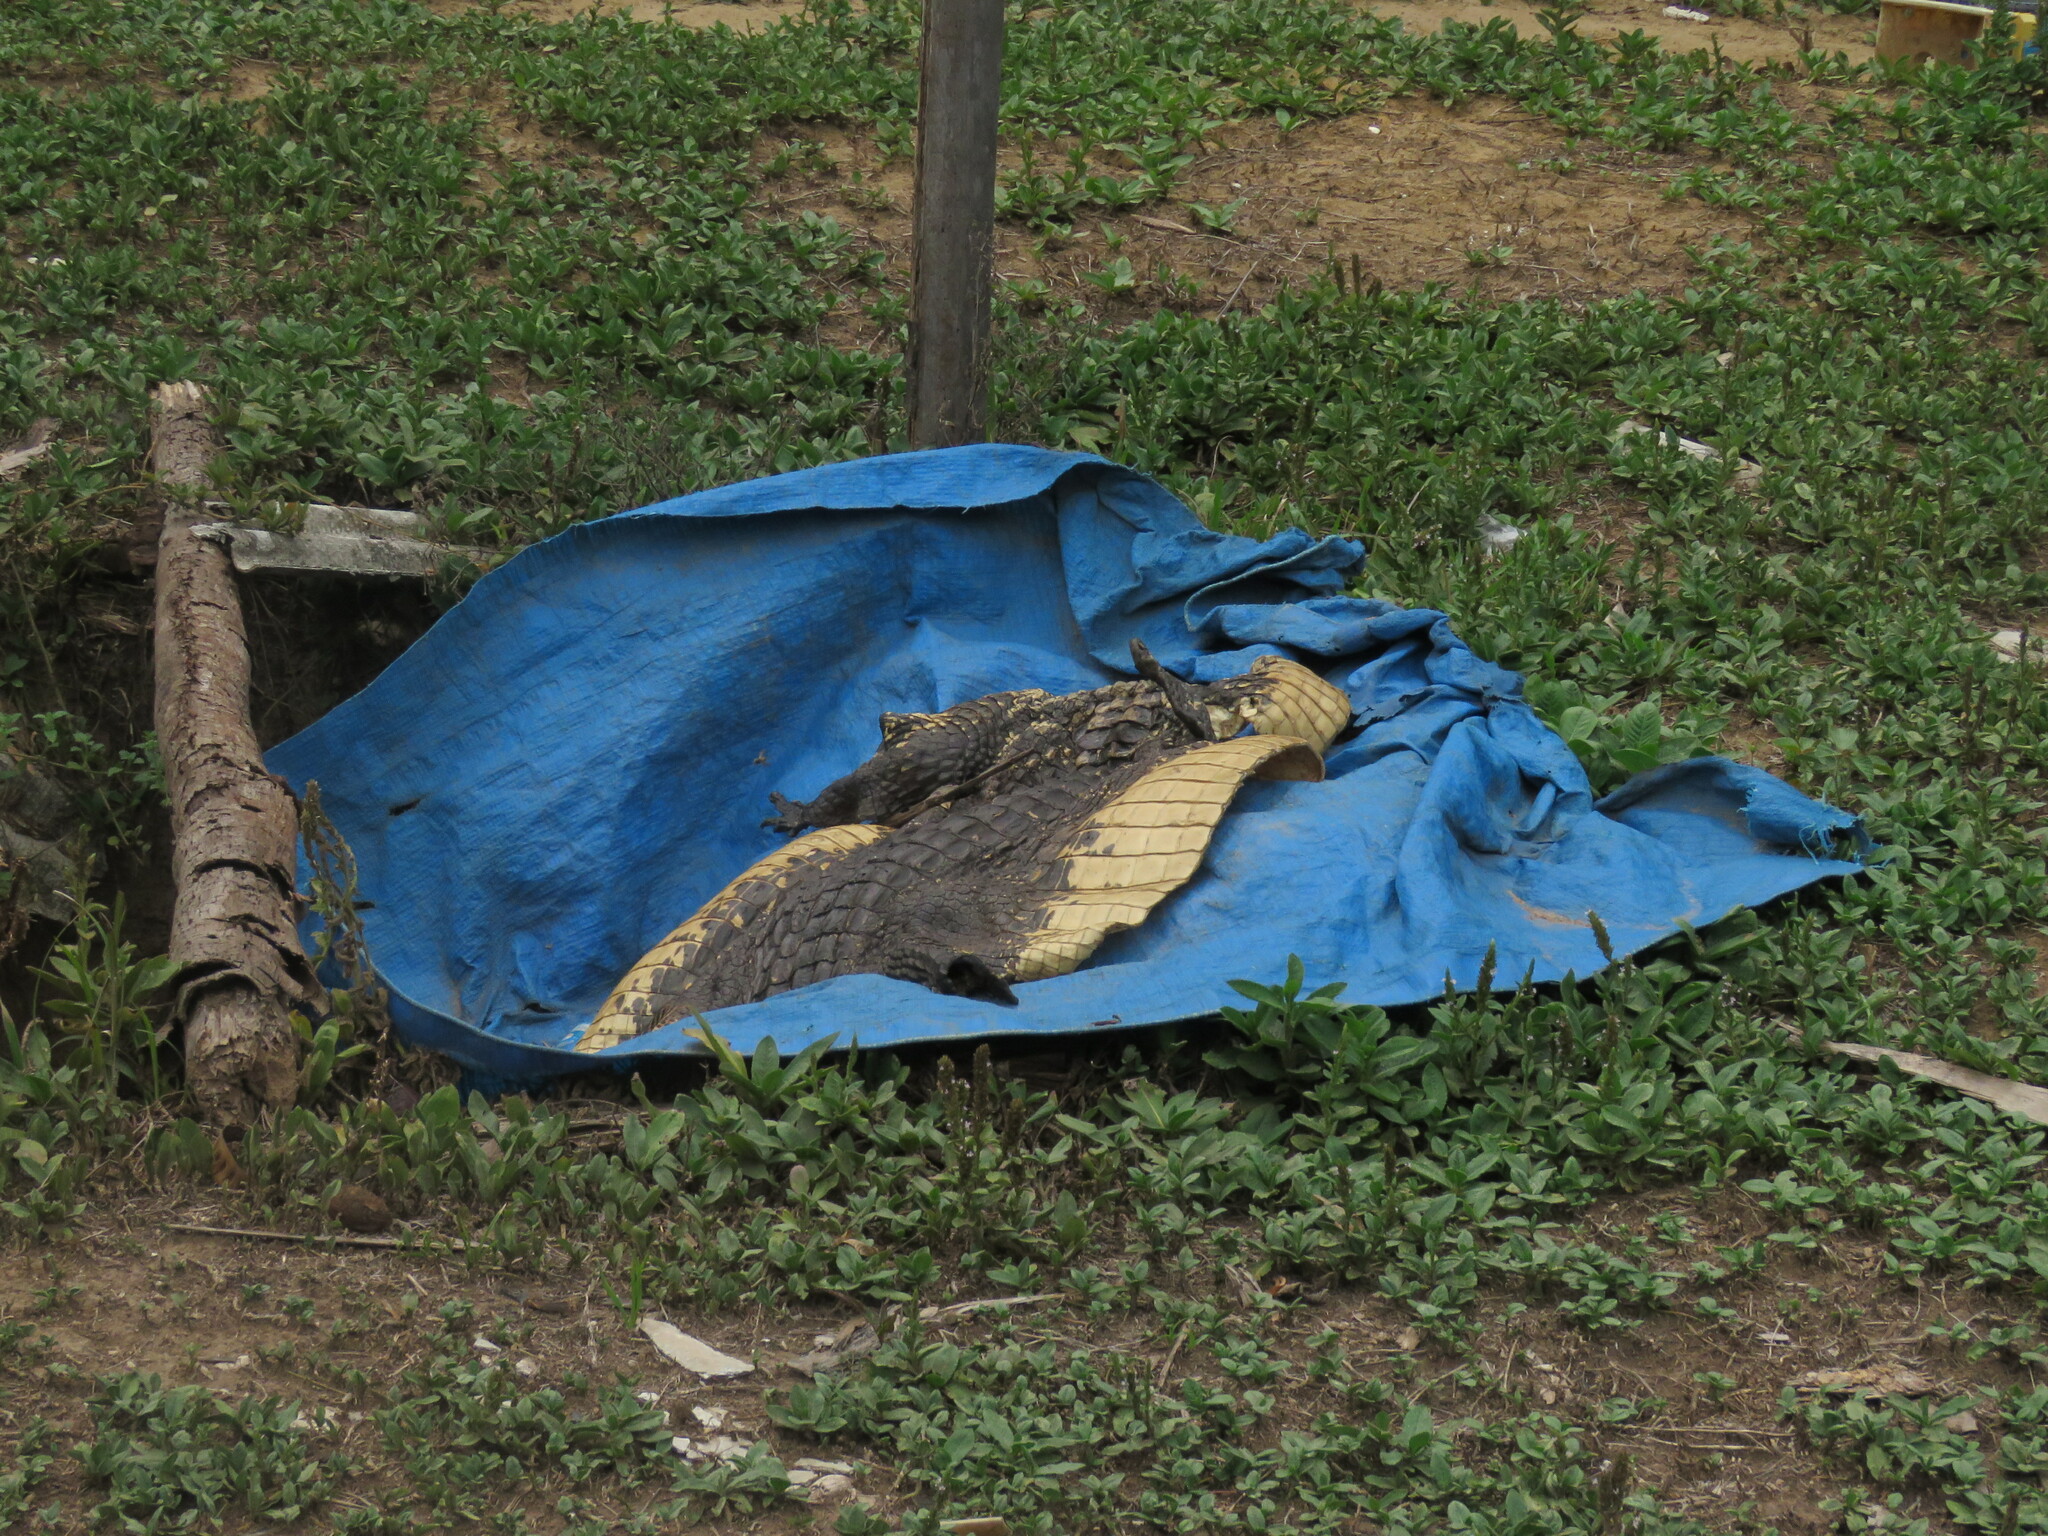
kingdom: Animalia
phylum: Chordata
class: Crocodylia
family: Alligatoridae
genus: Melanosuchus
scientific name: Melanosuchus niger
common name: Black caiman
